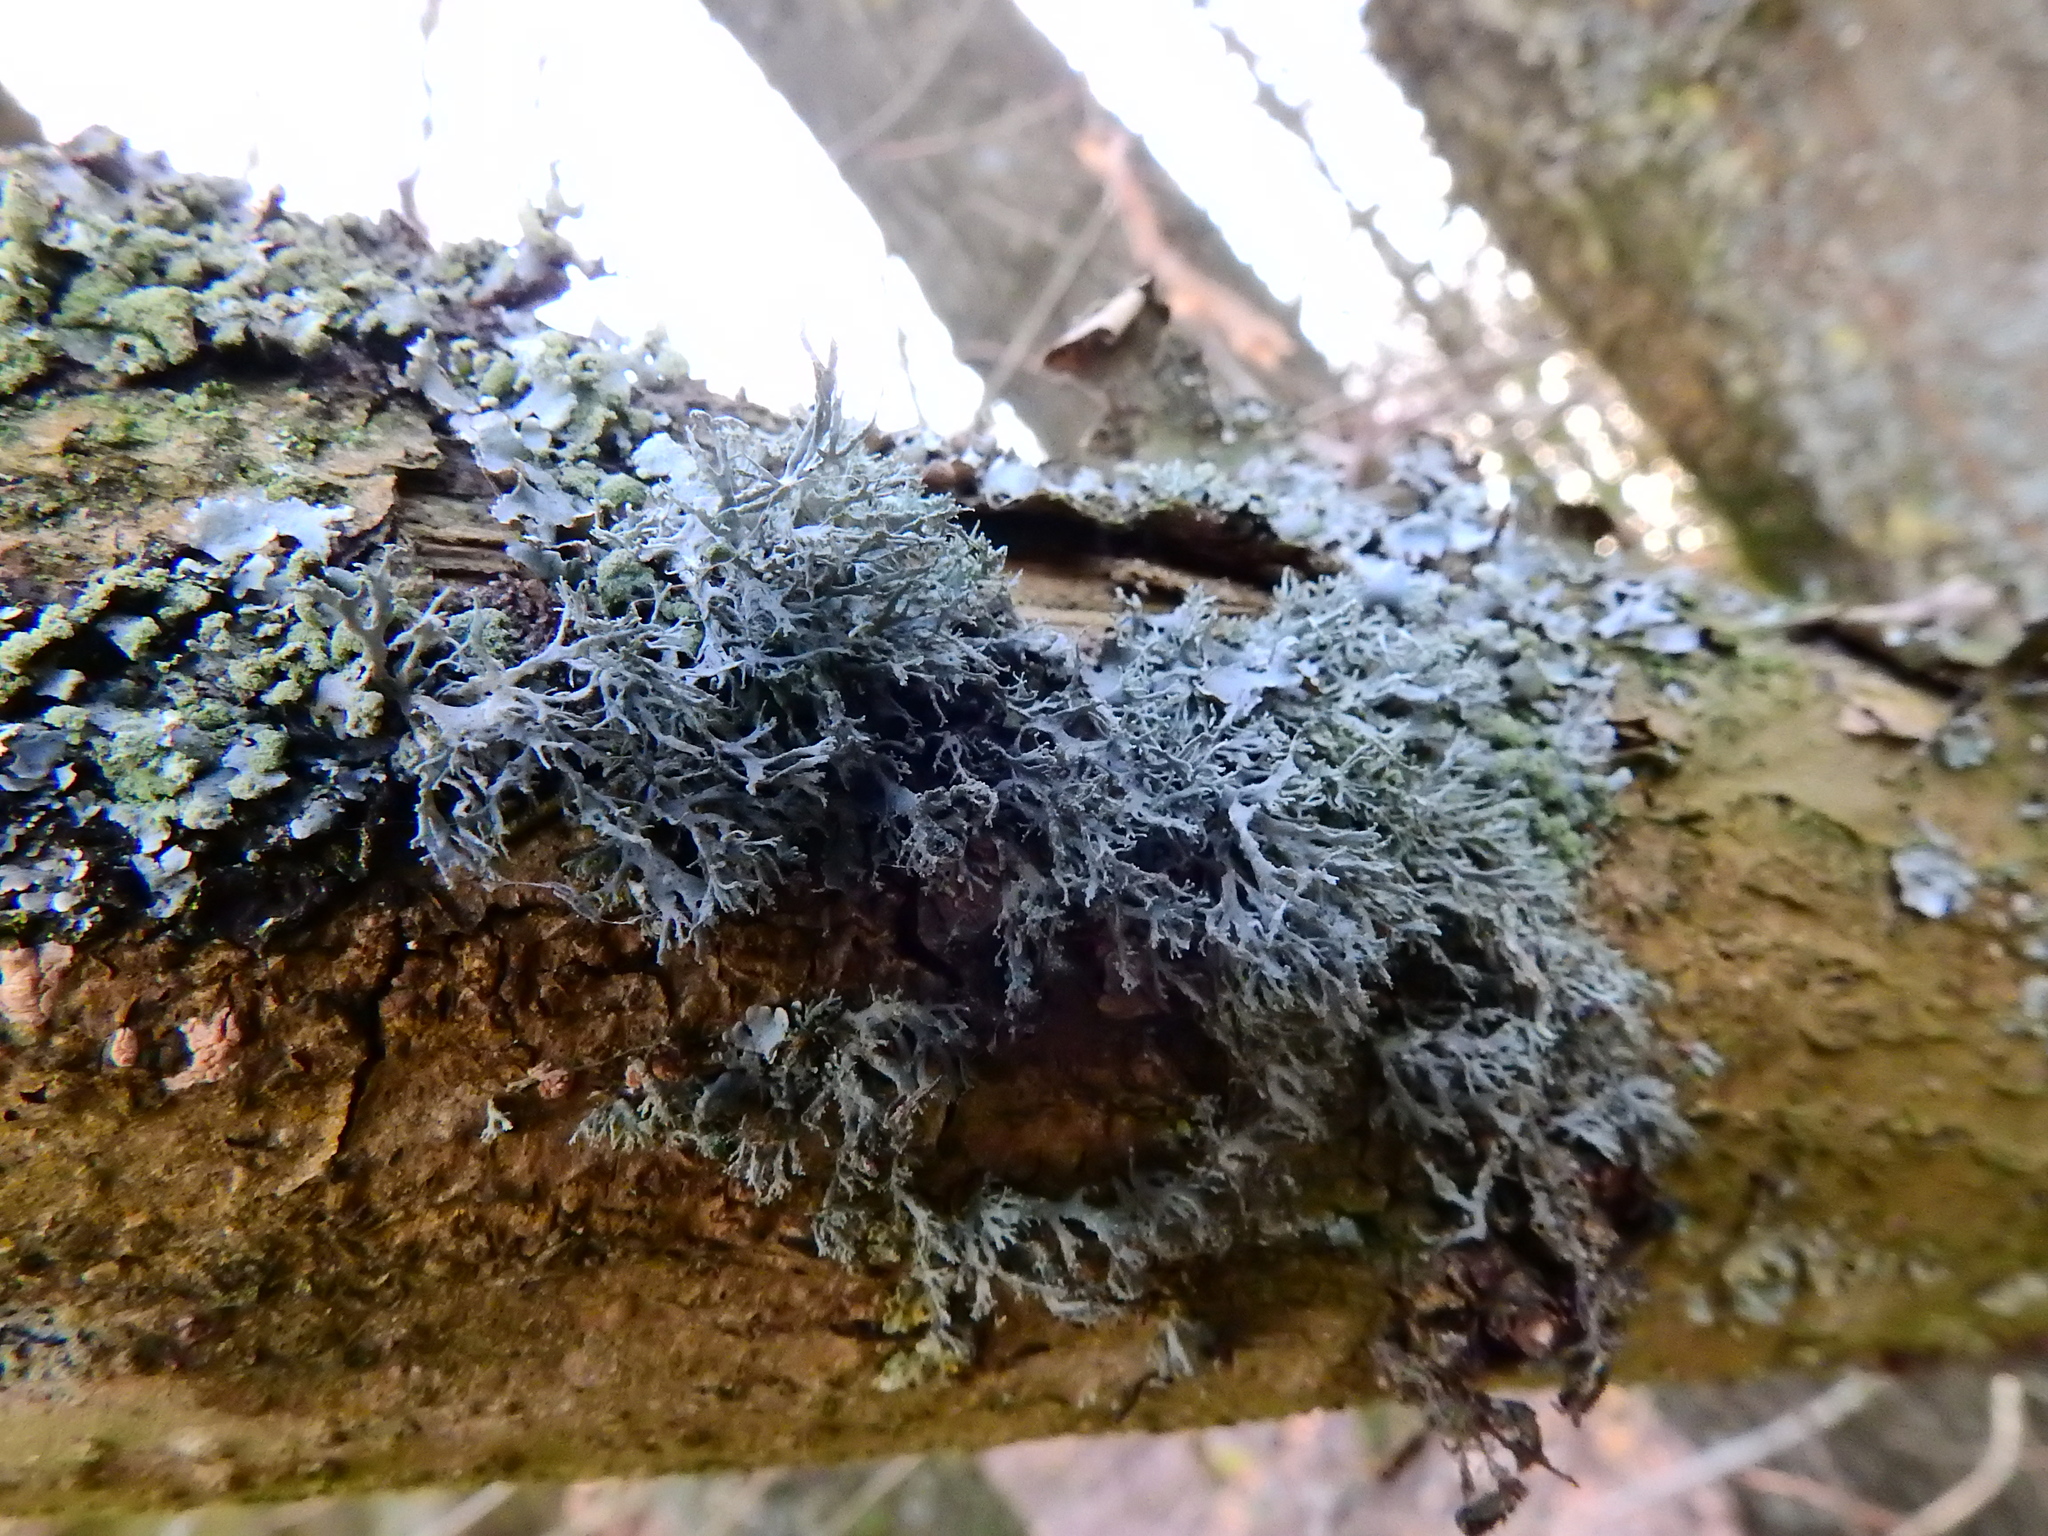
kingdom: Fungi
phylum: Ascomycota
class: Lecanoromycetes
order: Lecanorales
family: Ramalinaceae
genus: Ramalina
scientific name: Ramalina farinacea
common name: Farinose cartilage lichen
